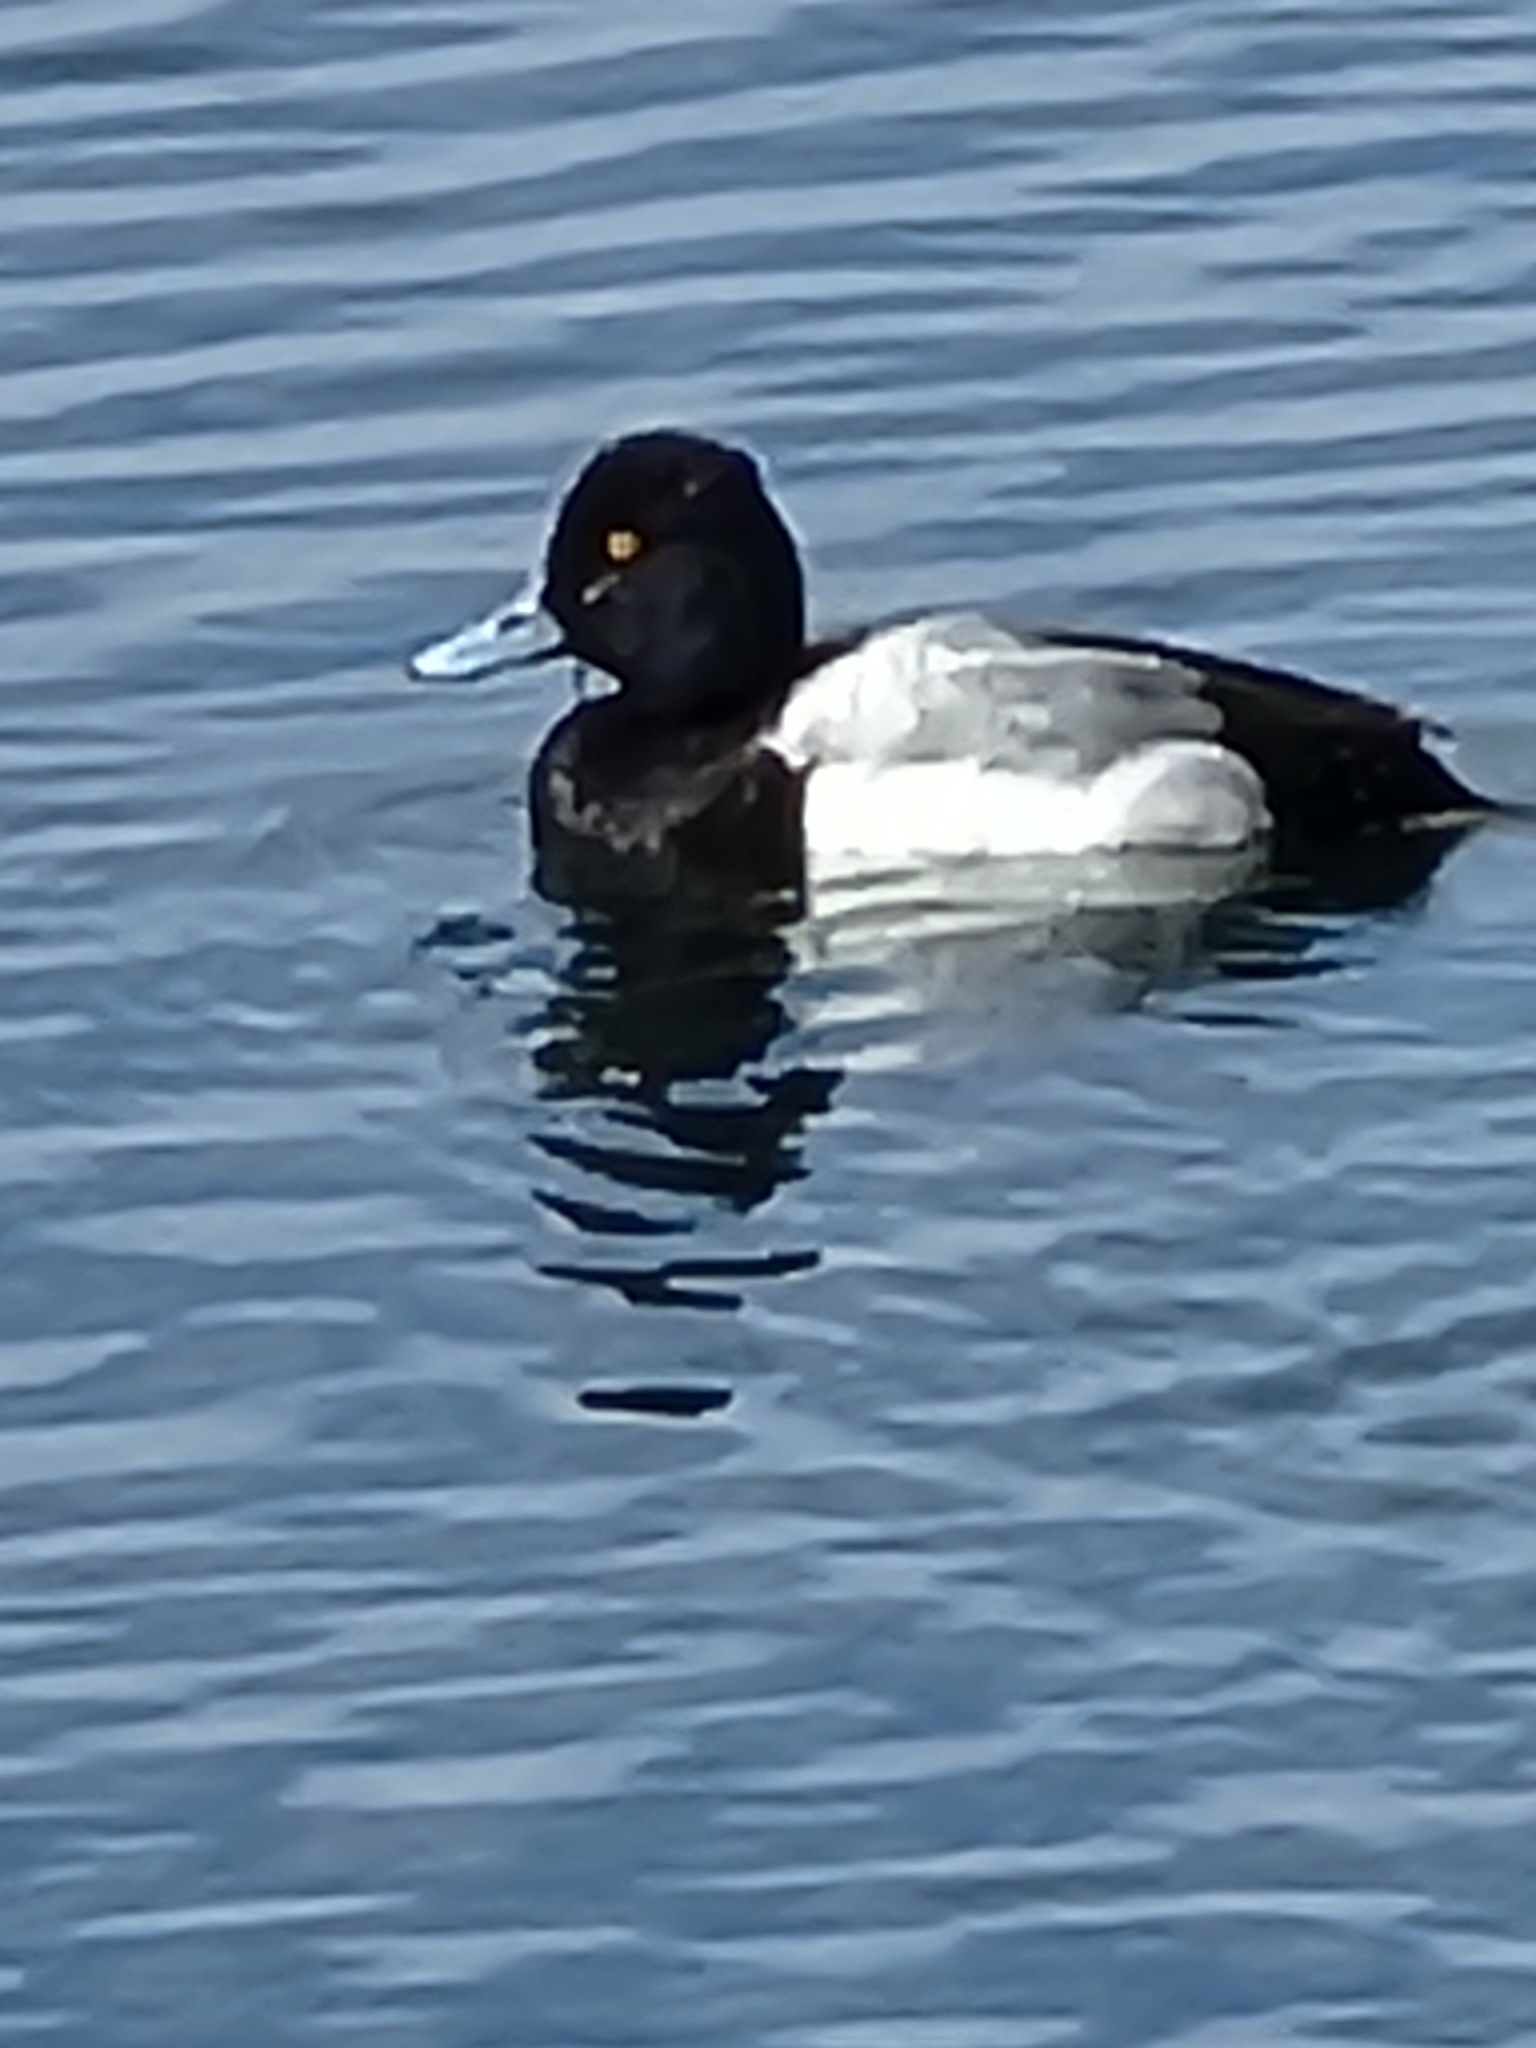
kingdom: Animalia
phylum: Chordata
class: Aves
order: Anseriformes
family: Anatidae
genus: Aythya
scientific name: Aythya affinis
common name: Lesser scaup
